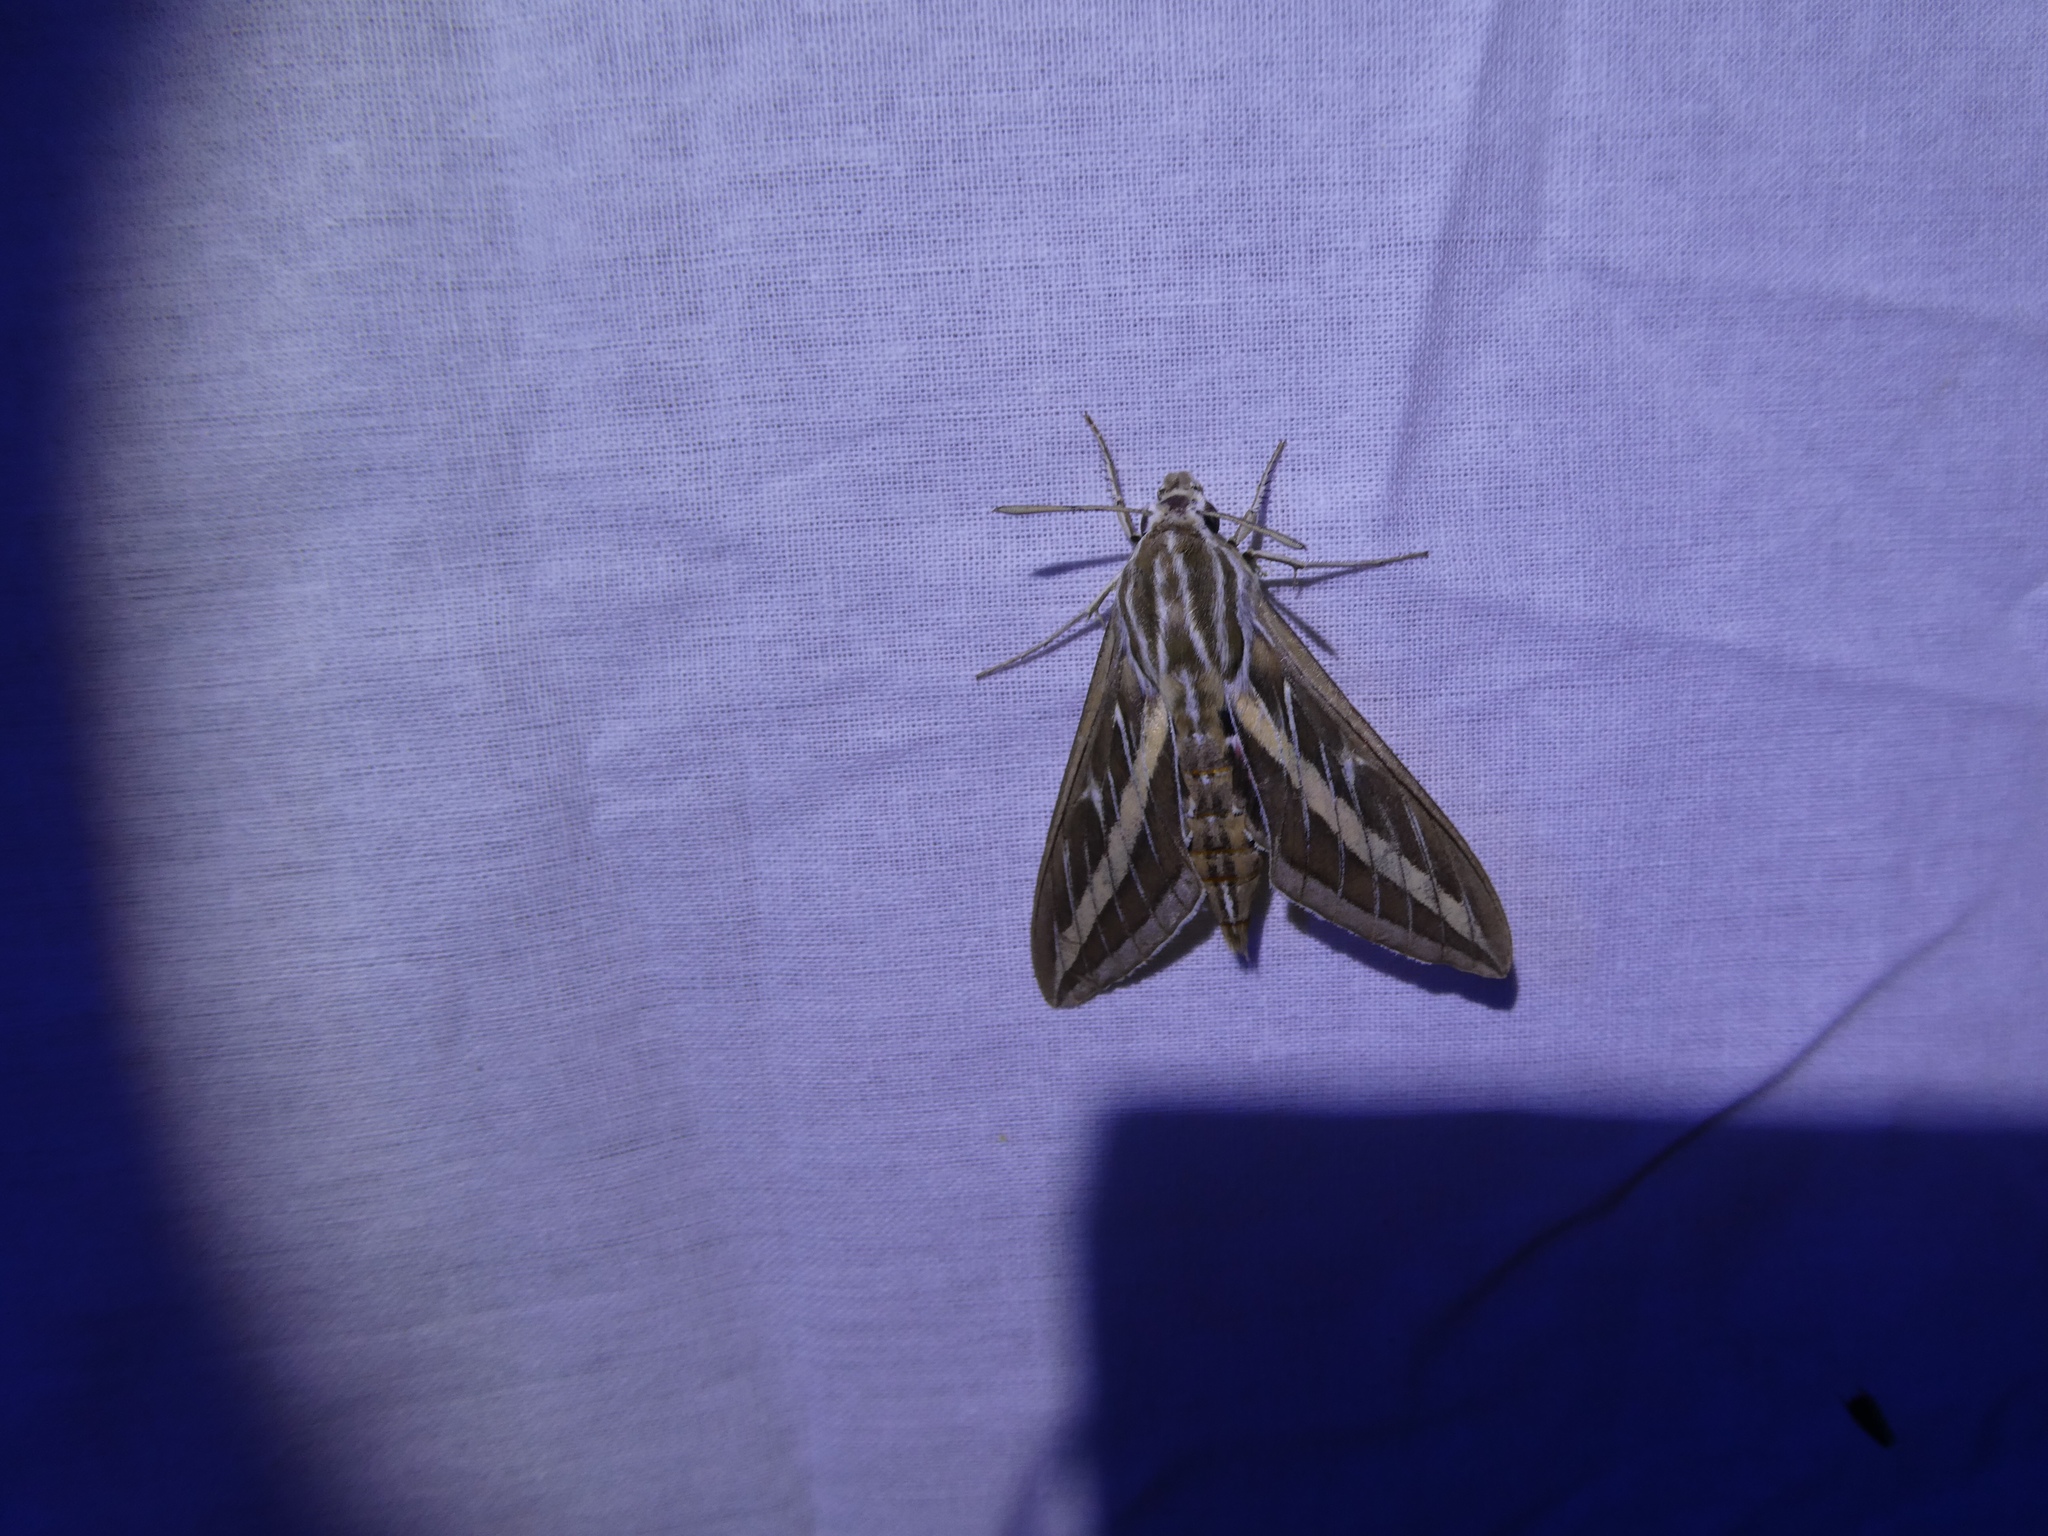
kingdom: Animalia
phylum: Arthropoda
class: Insecta
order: Lepidoptera
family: Sphingidae
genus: Hyles
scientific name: Hyles lineata
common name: White-lined sphinx
